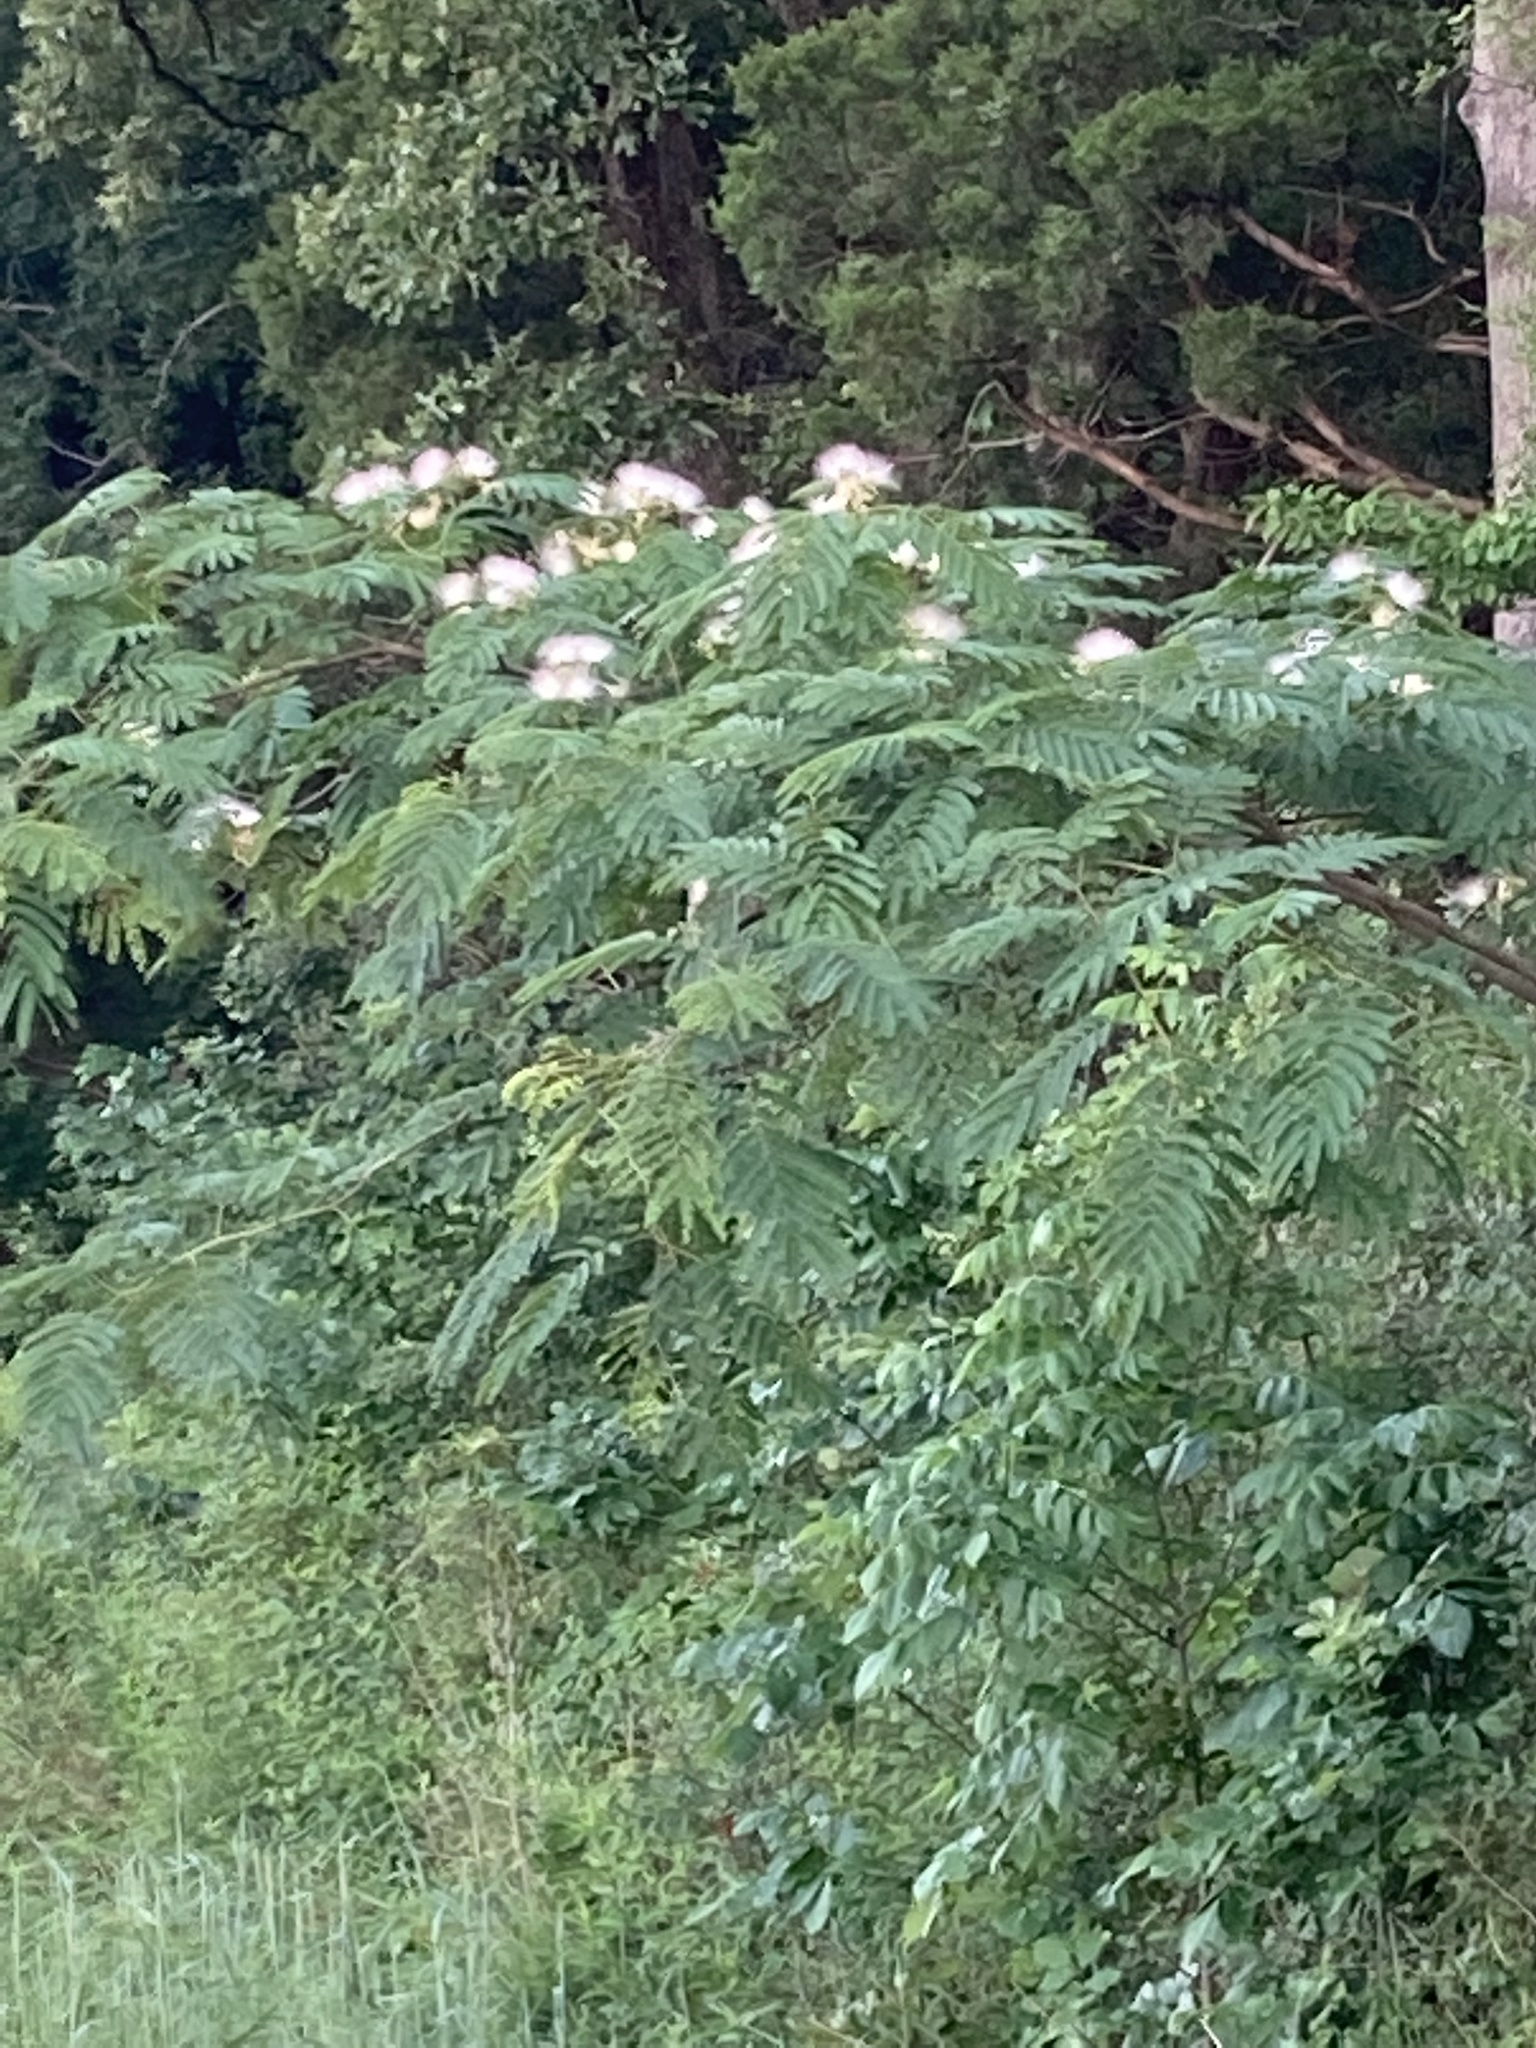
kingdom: Plantae
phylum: Tracheophyta
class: Magnoliopsida
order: Fabales
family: Fabaceae
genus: Albizia
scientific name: Albizia julibrissin
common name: Silktree
